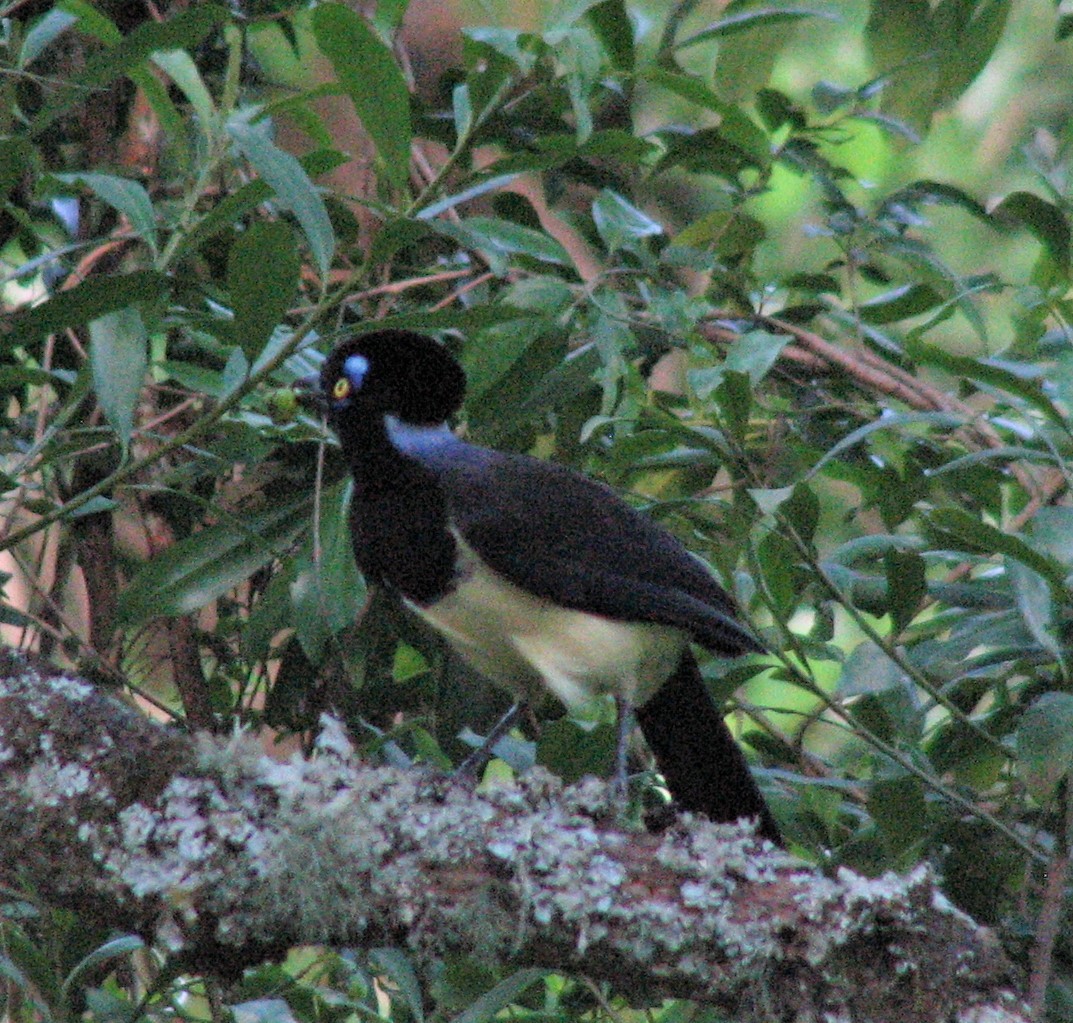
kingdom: Animalia
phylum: Chordata
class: Aves
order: Passeriformes
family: Corvidae
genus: Cyanocorax
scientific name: Cyanocorax chrysops
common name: Plush-crested jay
